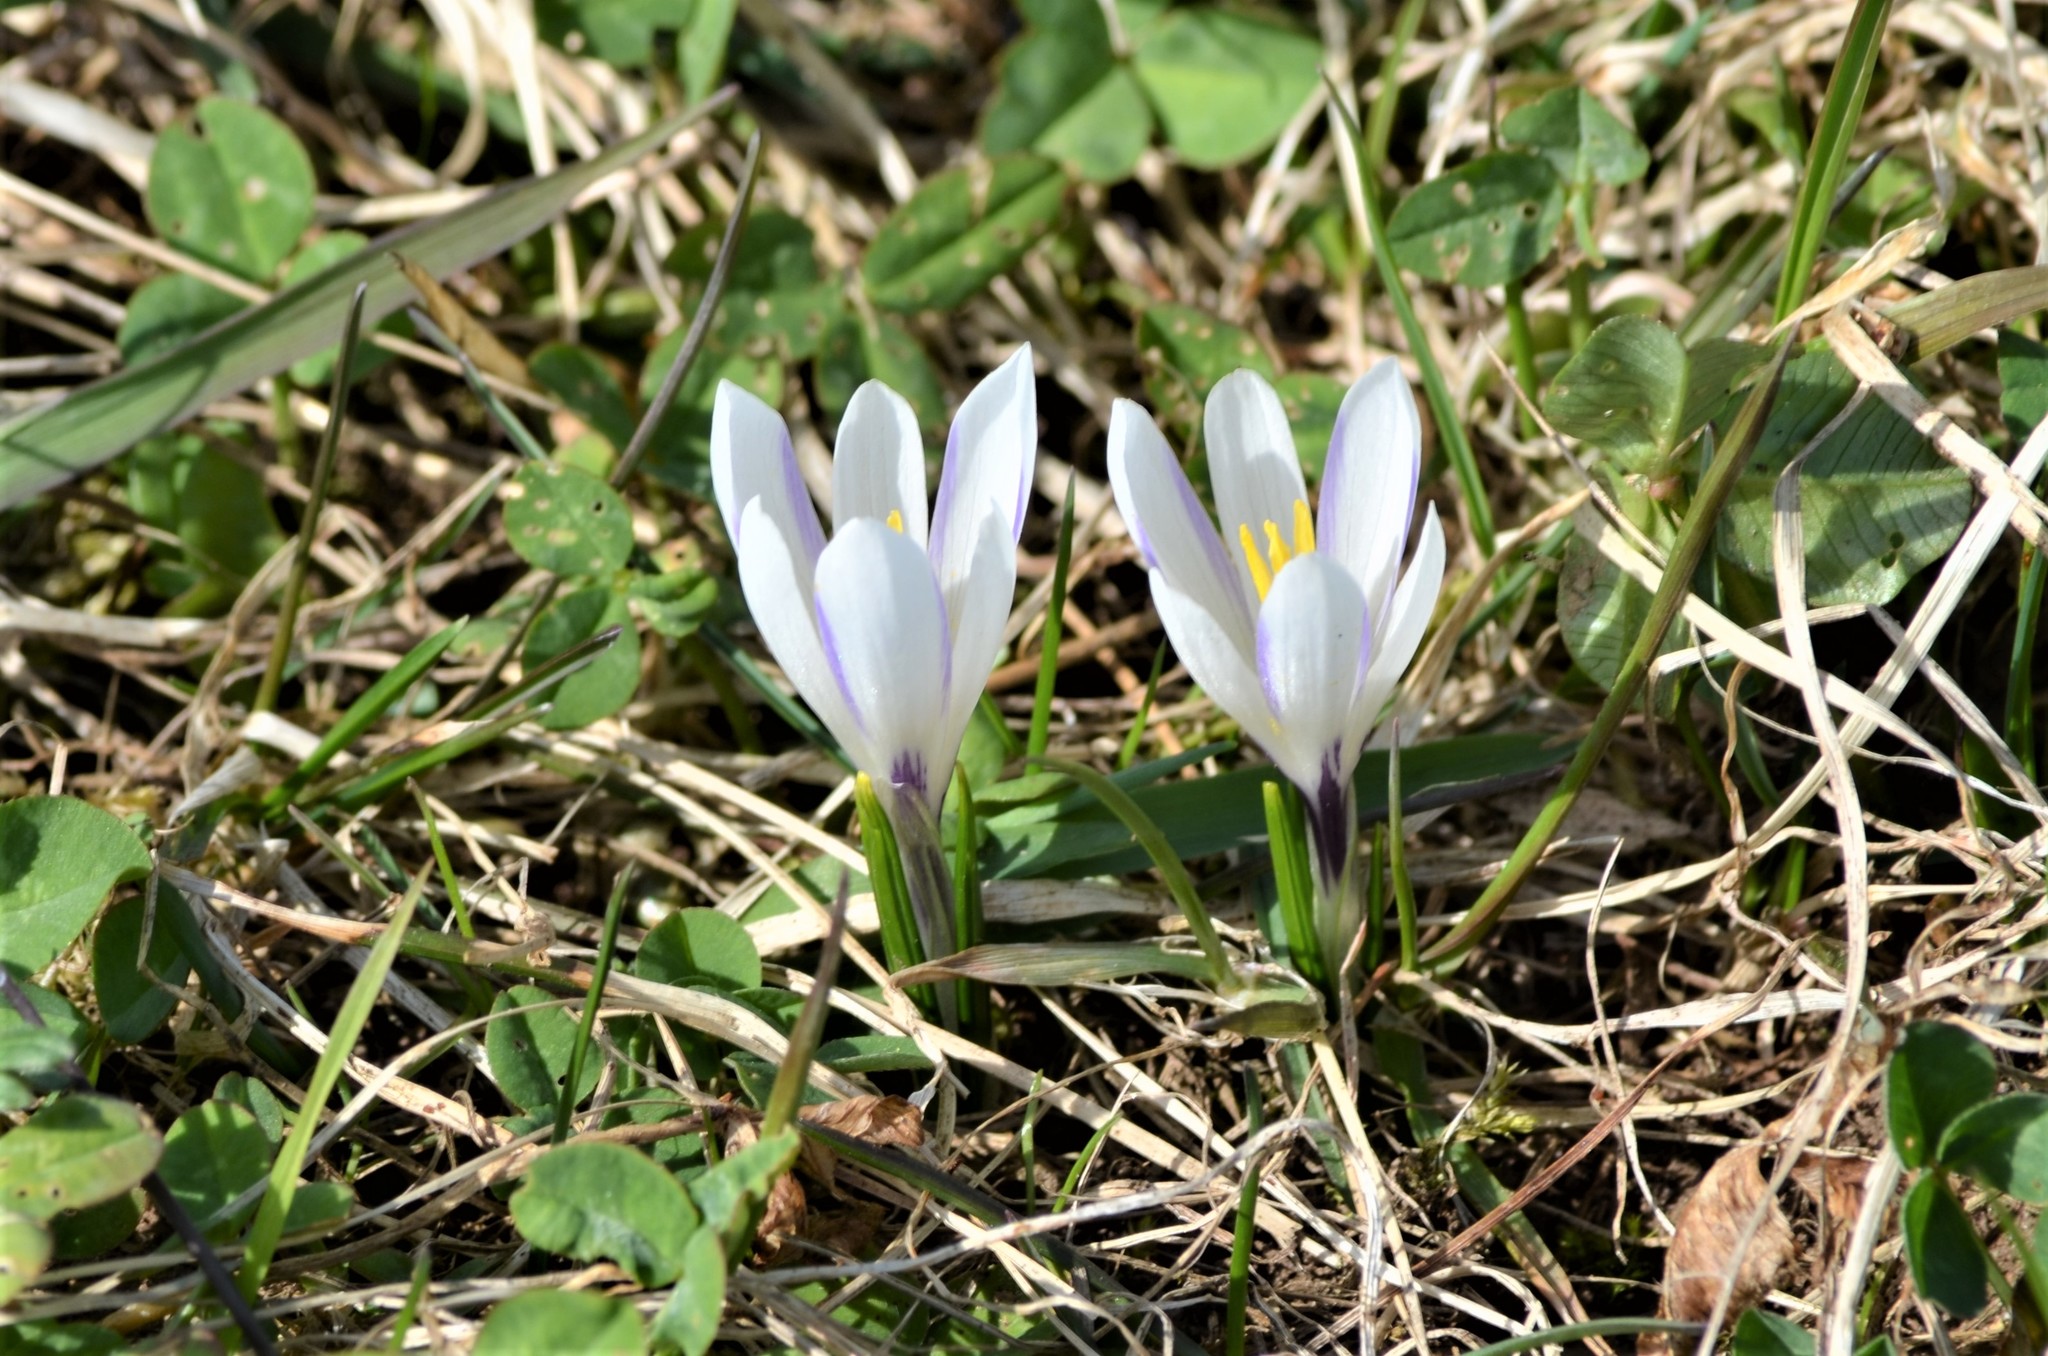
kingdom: Plantae
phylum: Tracheophyta
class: Liliopsida
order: Asparagales
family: Iridaceae
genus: Crocus
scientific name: Crocus vernus
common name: Spring crocus
